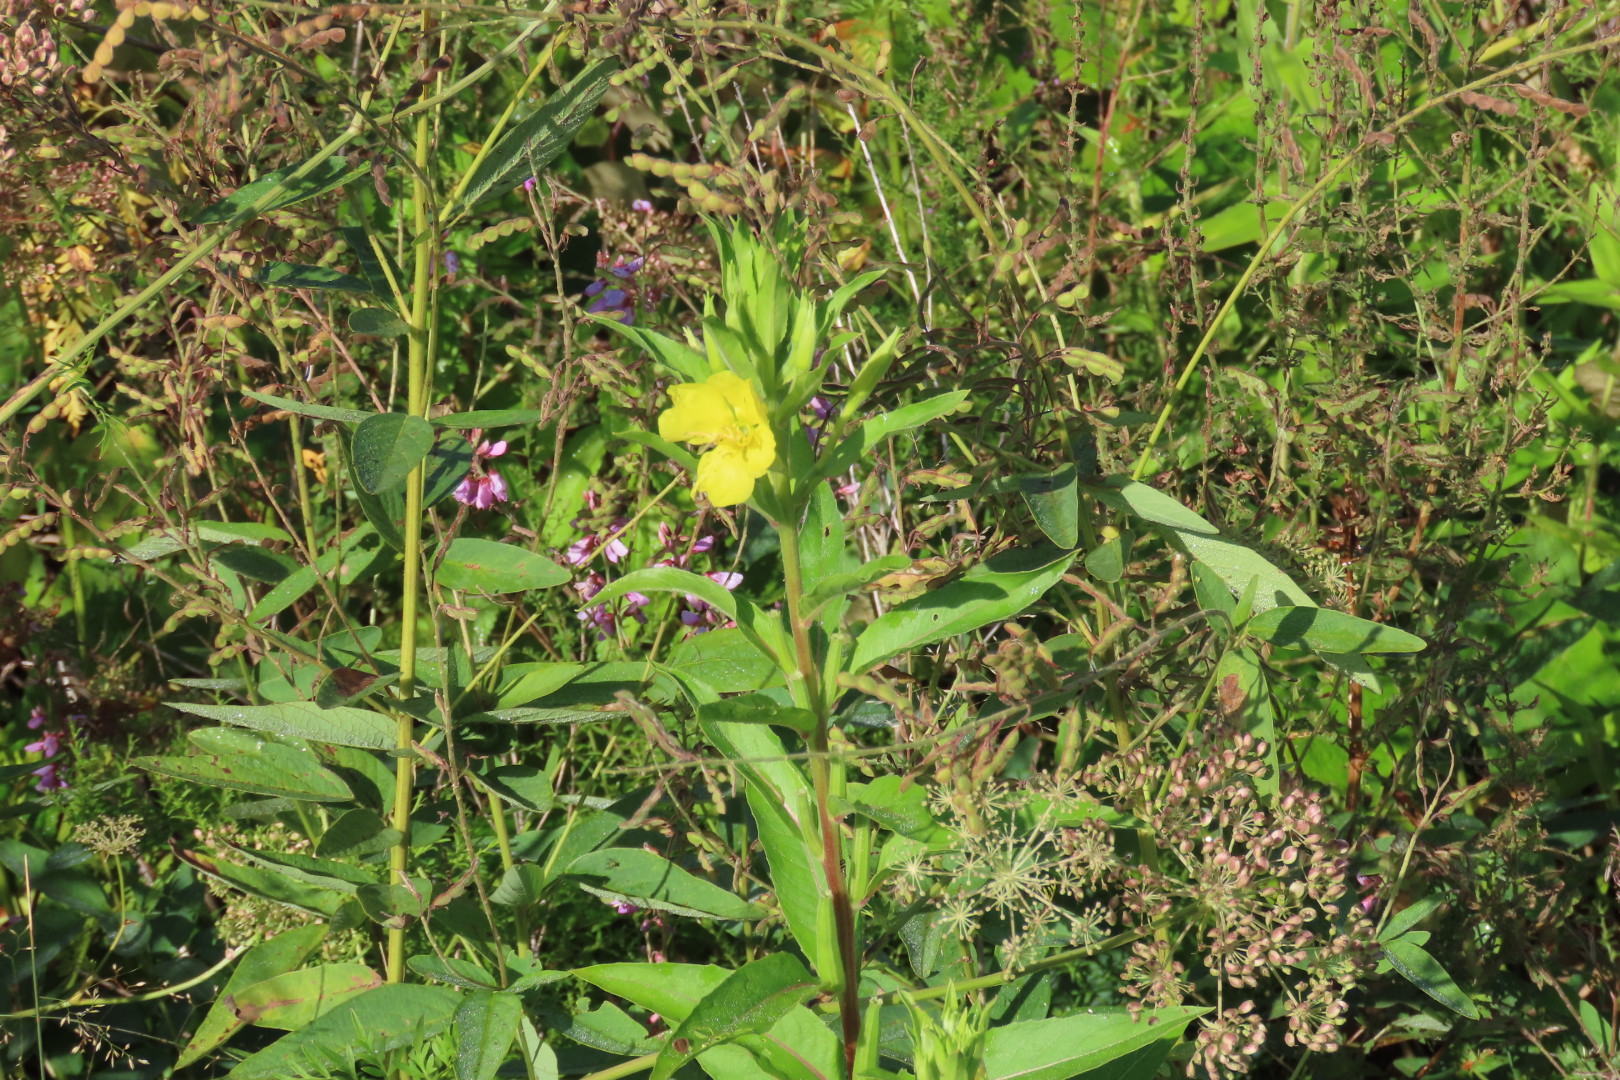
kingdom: Plantae
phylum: Tracheophyta
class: Magnoliopsida
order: Myrtales
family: Onagraceae
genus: Oenothera
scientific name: Oenothera biennis
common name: Common evening-primrose
